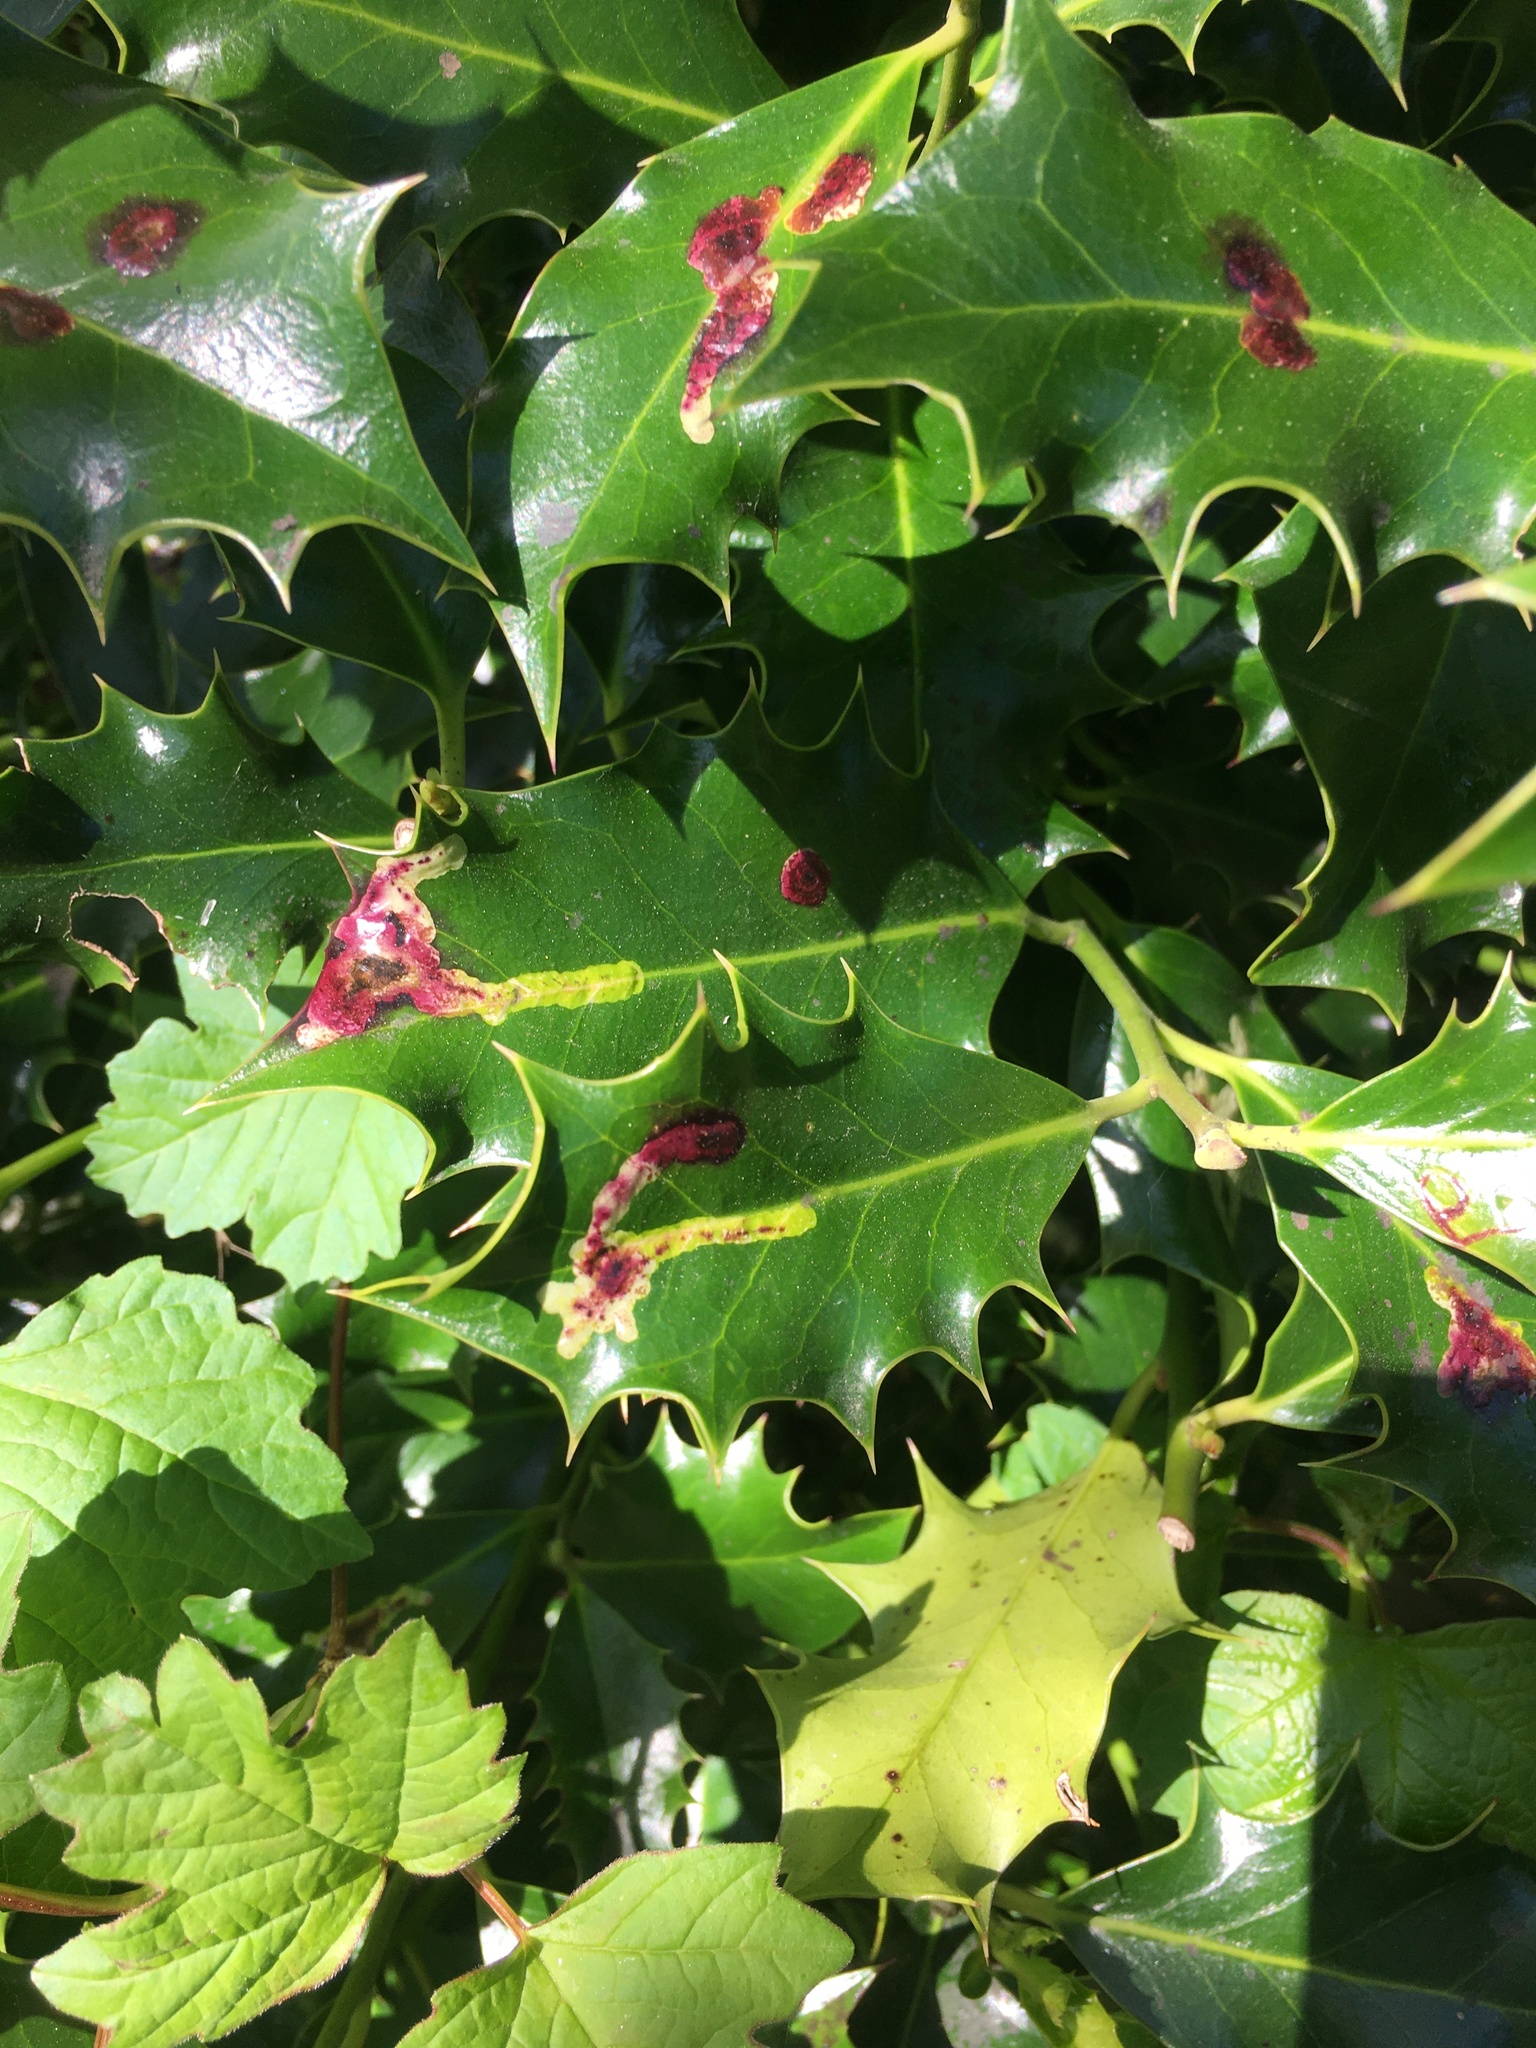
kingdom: Animalia
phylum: Arthropoda
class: Insecta
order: Diptera
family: Agromyzidae
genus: Phytomyza
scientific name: Phytomyza ilicis
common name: Holly leafminer
